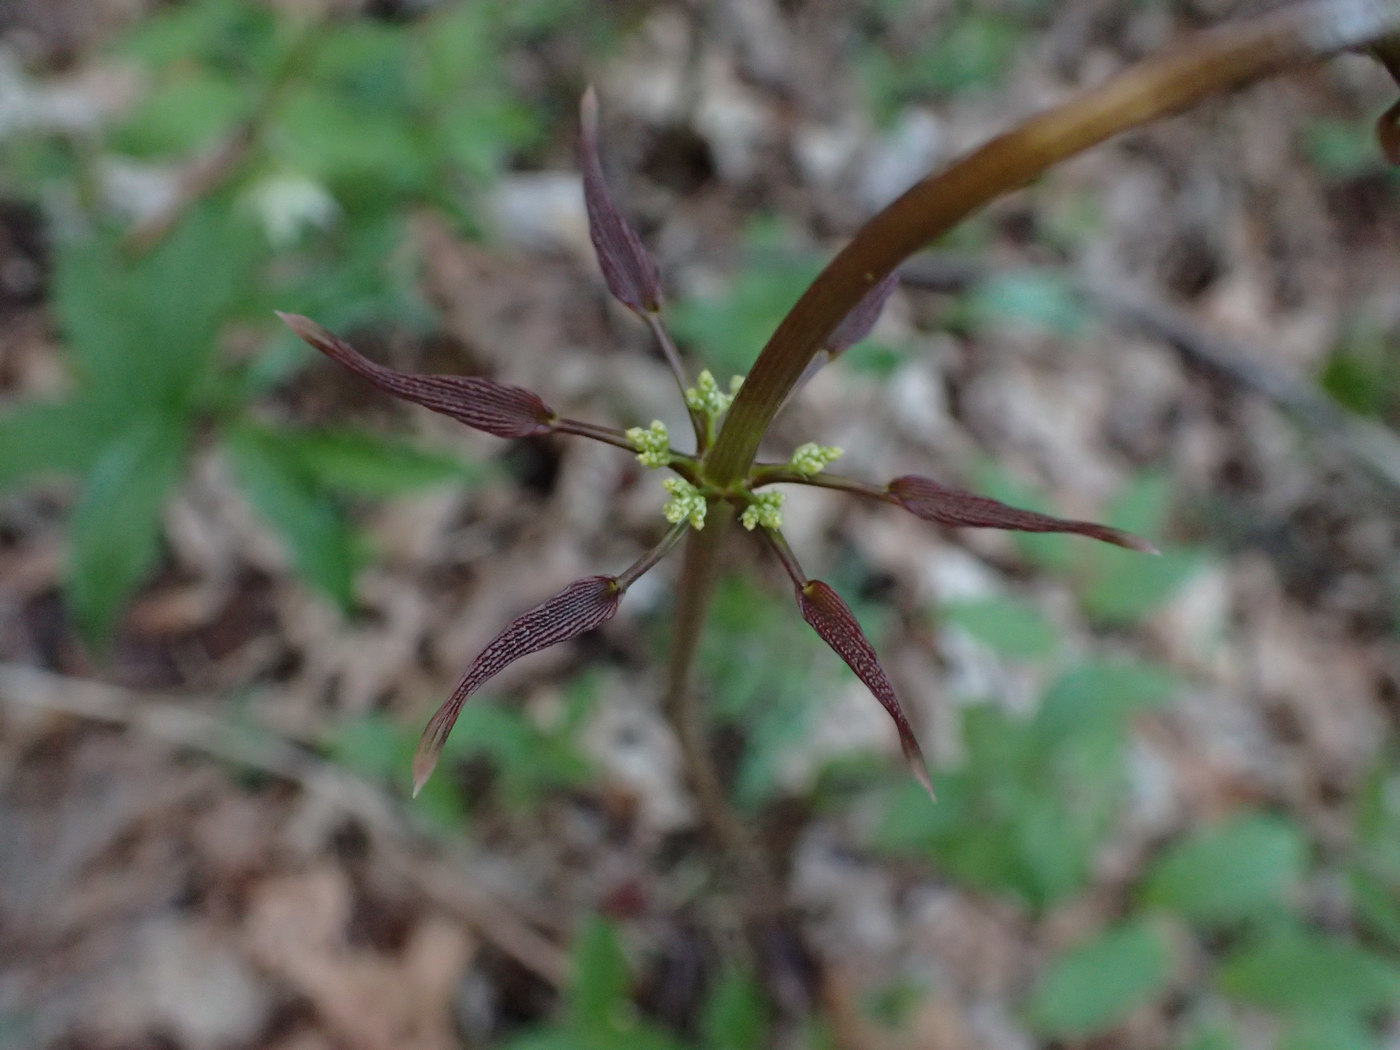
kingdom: Plantae
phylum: Tracheophyta
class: Liliopsida
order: Dioscoreales
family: Dioscoreaceae
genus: Dioscorea
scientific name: Dioscorea villosa
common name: Wild yam
